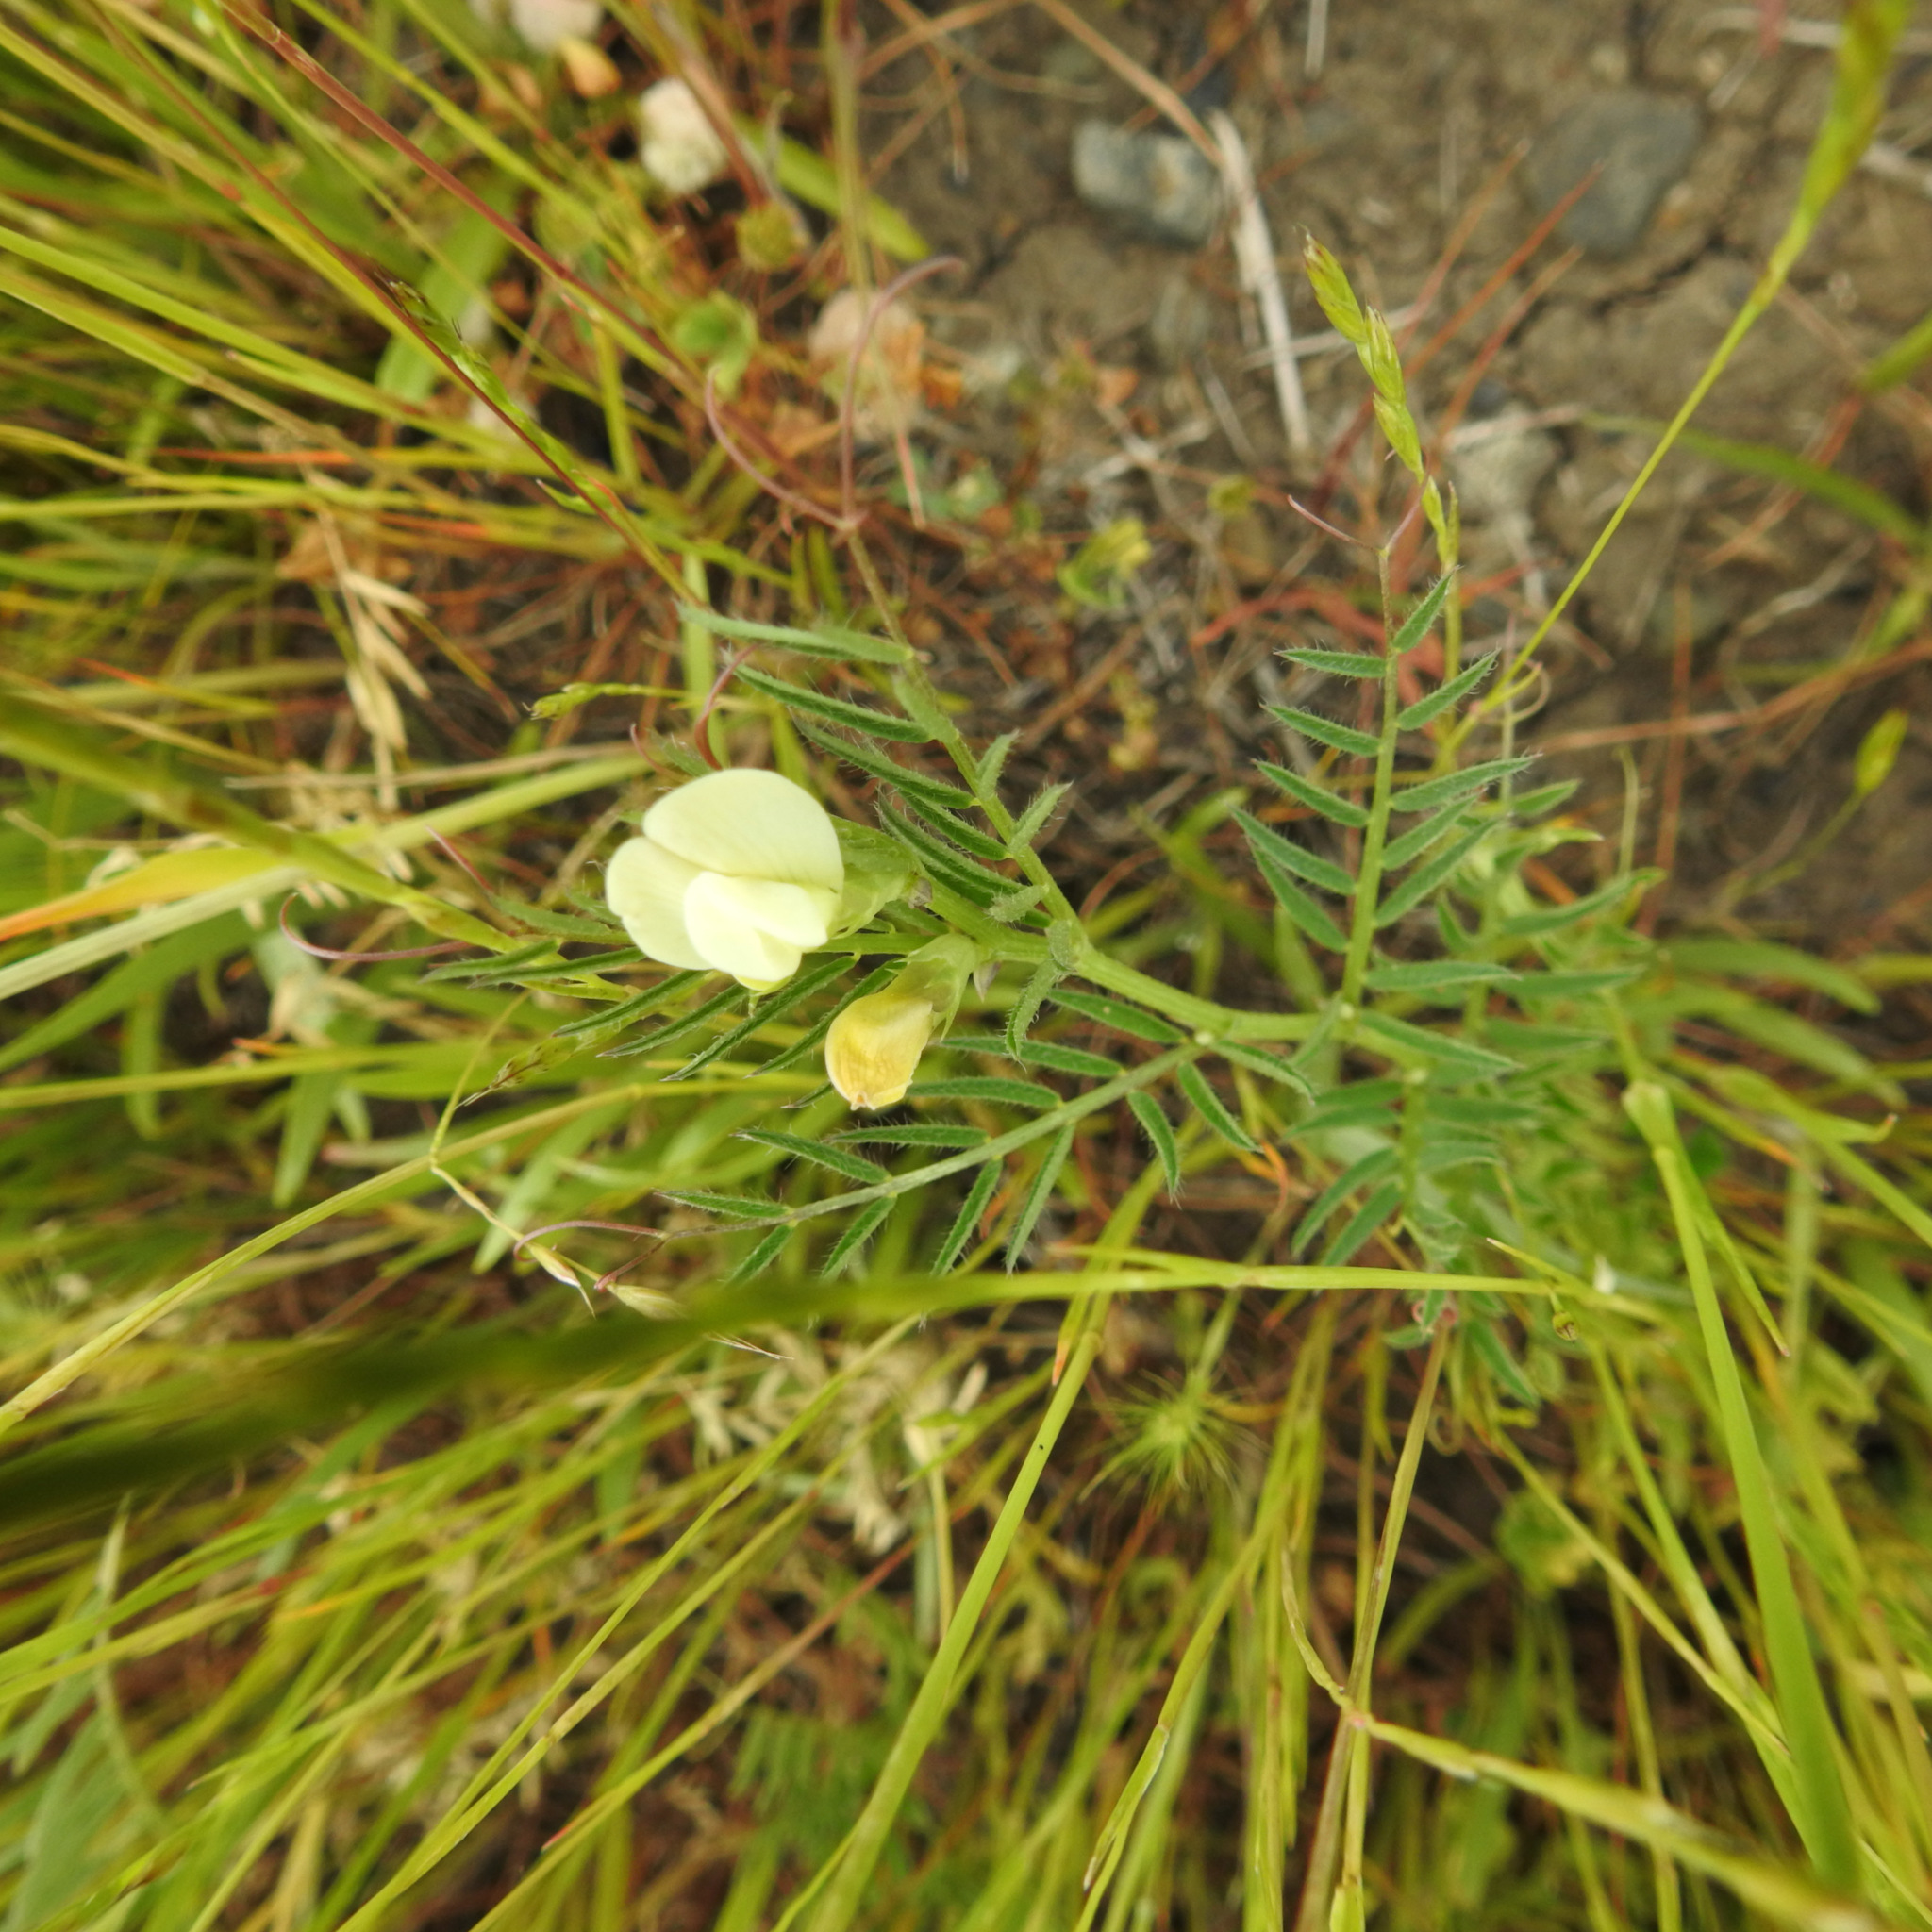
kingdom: Plantae
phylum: Tracheophyta
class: Magnoliopsida
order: Fabales
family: Fabaceae
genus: Vicia
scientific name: Vicia lutea
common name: Smooth yellow vetch
